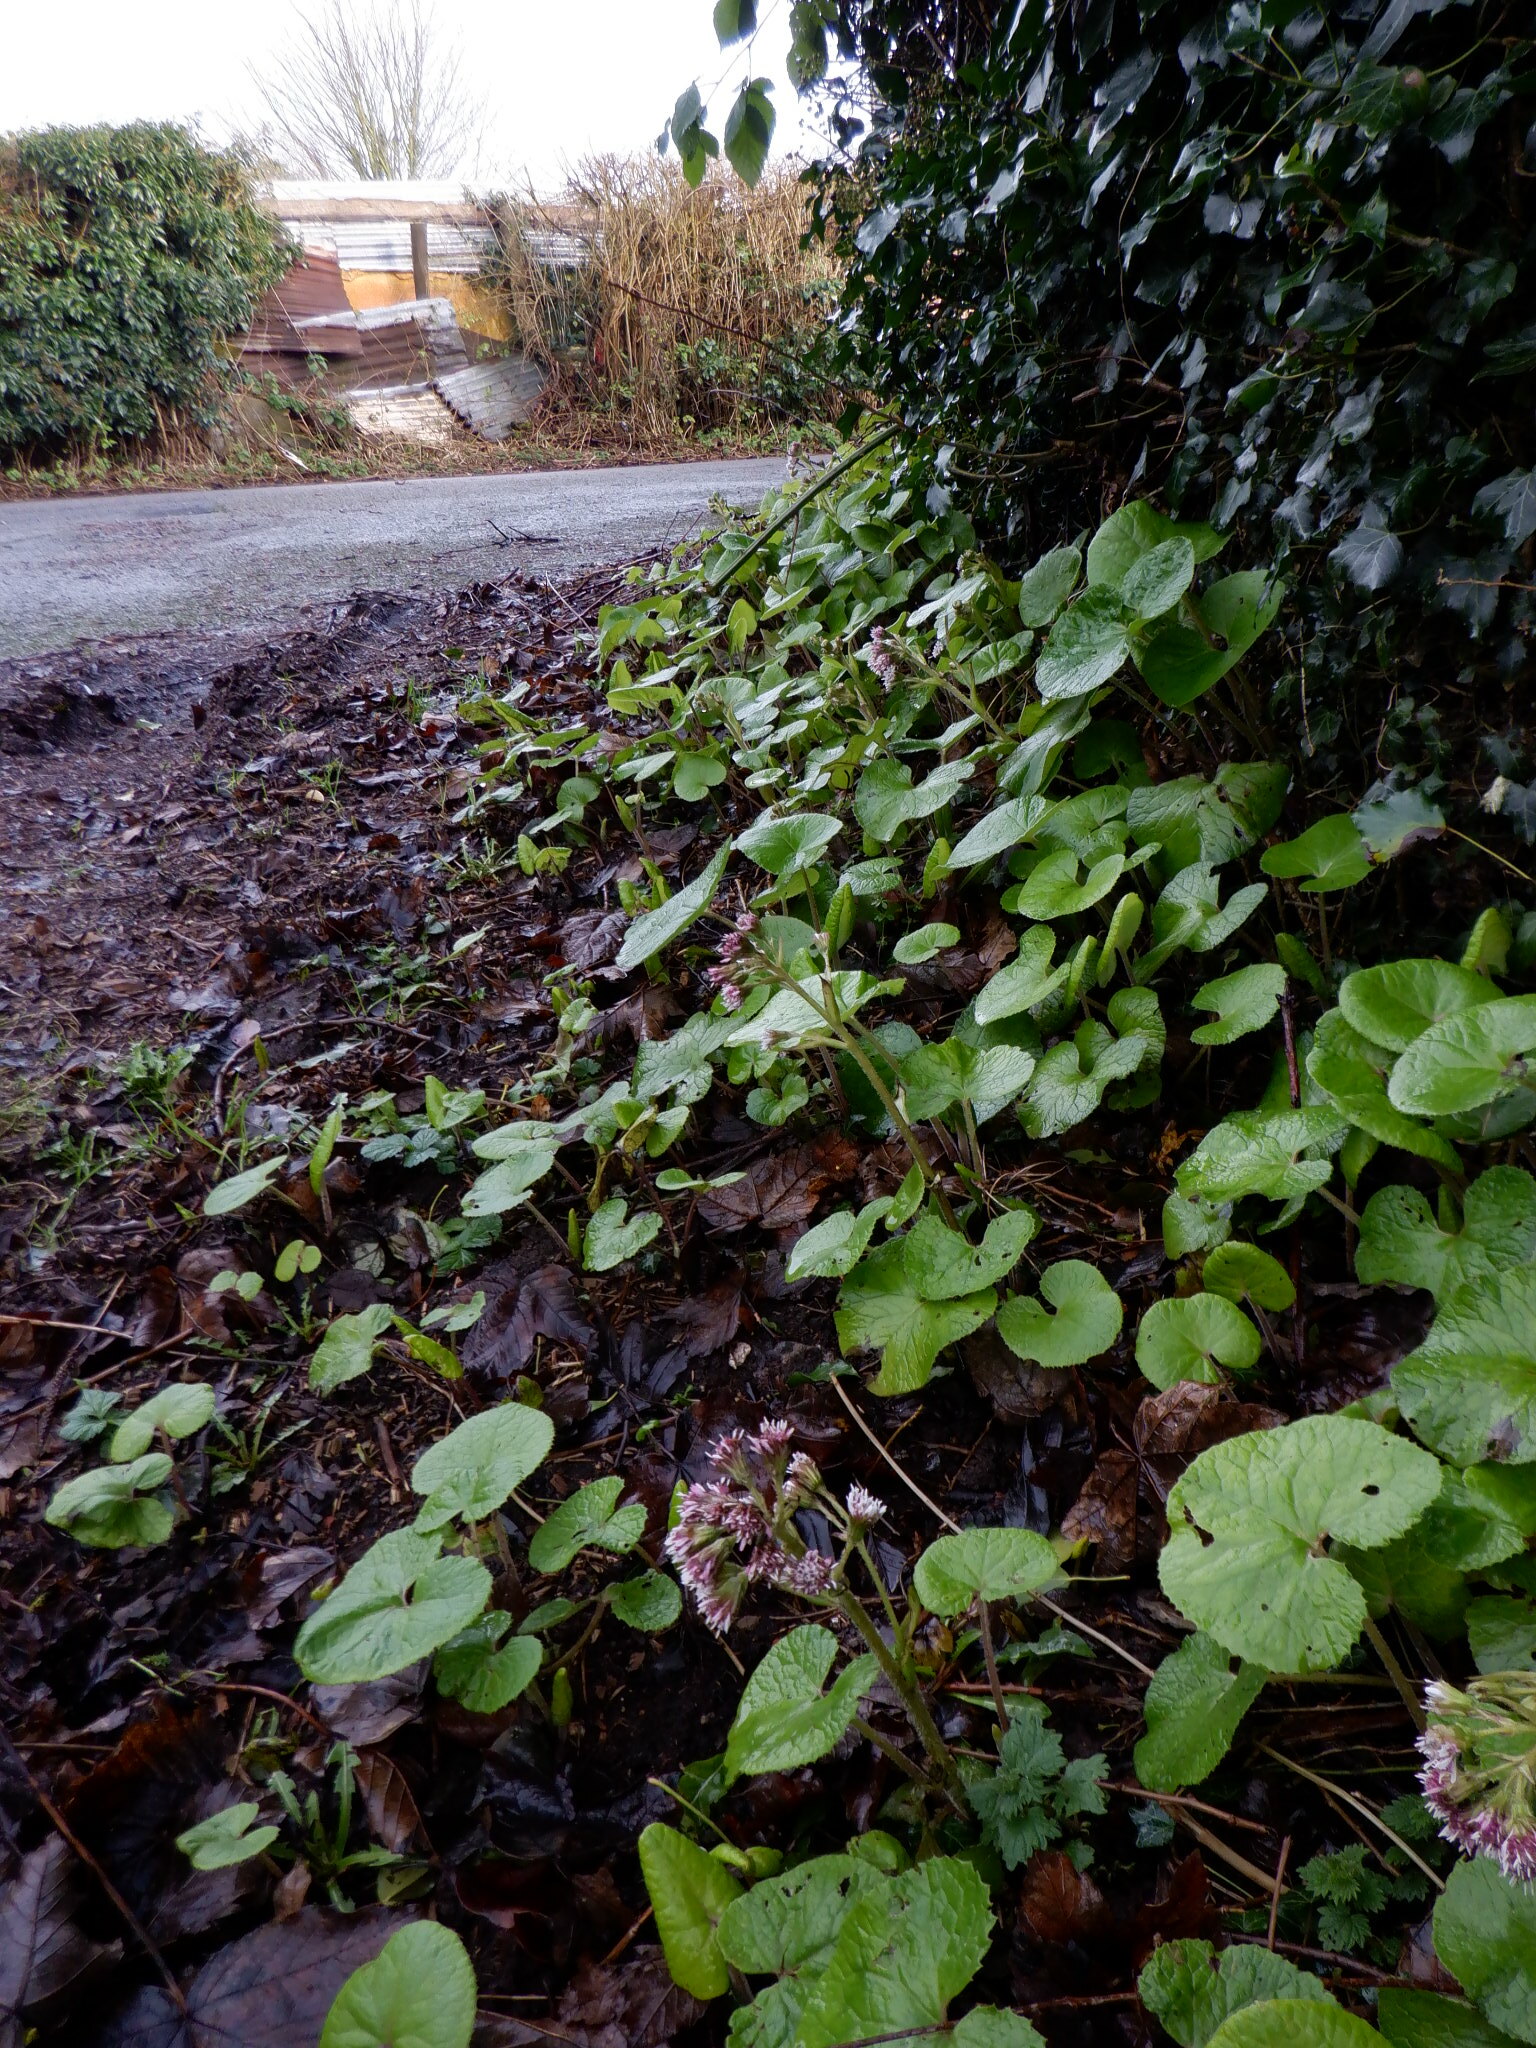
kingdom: Plantae
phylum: Tracheophyta
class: Magnoliopsida
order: Asterales
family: Asteraceae
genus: Petasites
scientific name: Petasites pyrenaicus
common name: Winter heliotrope
